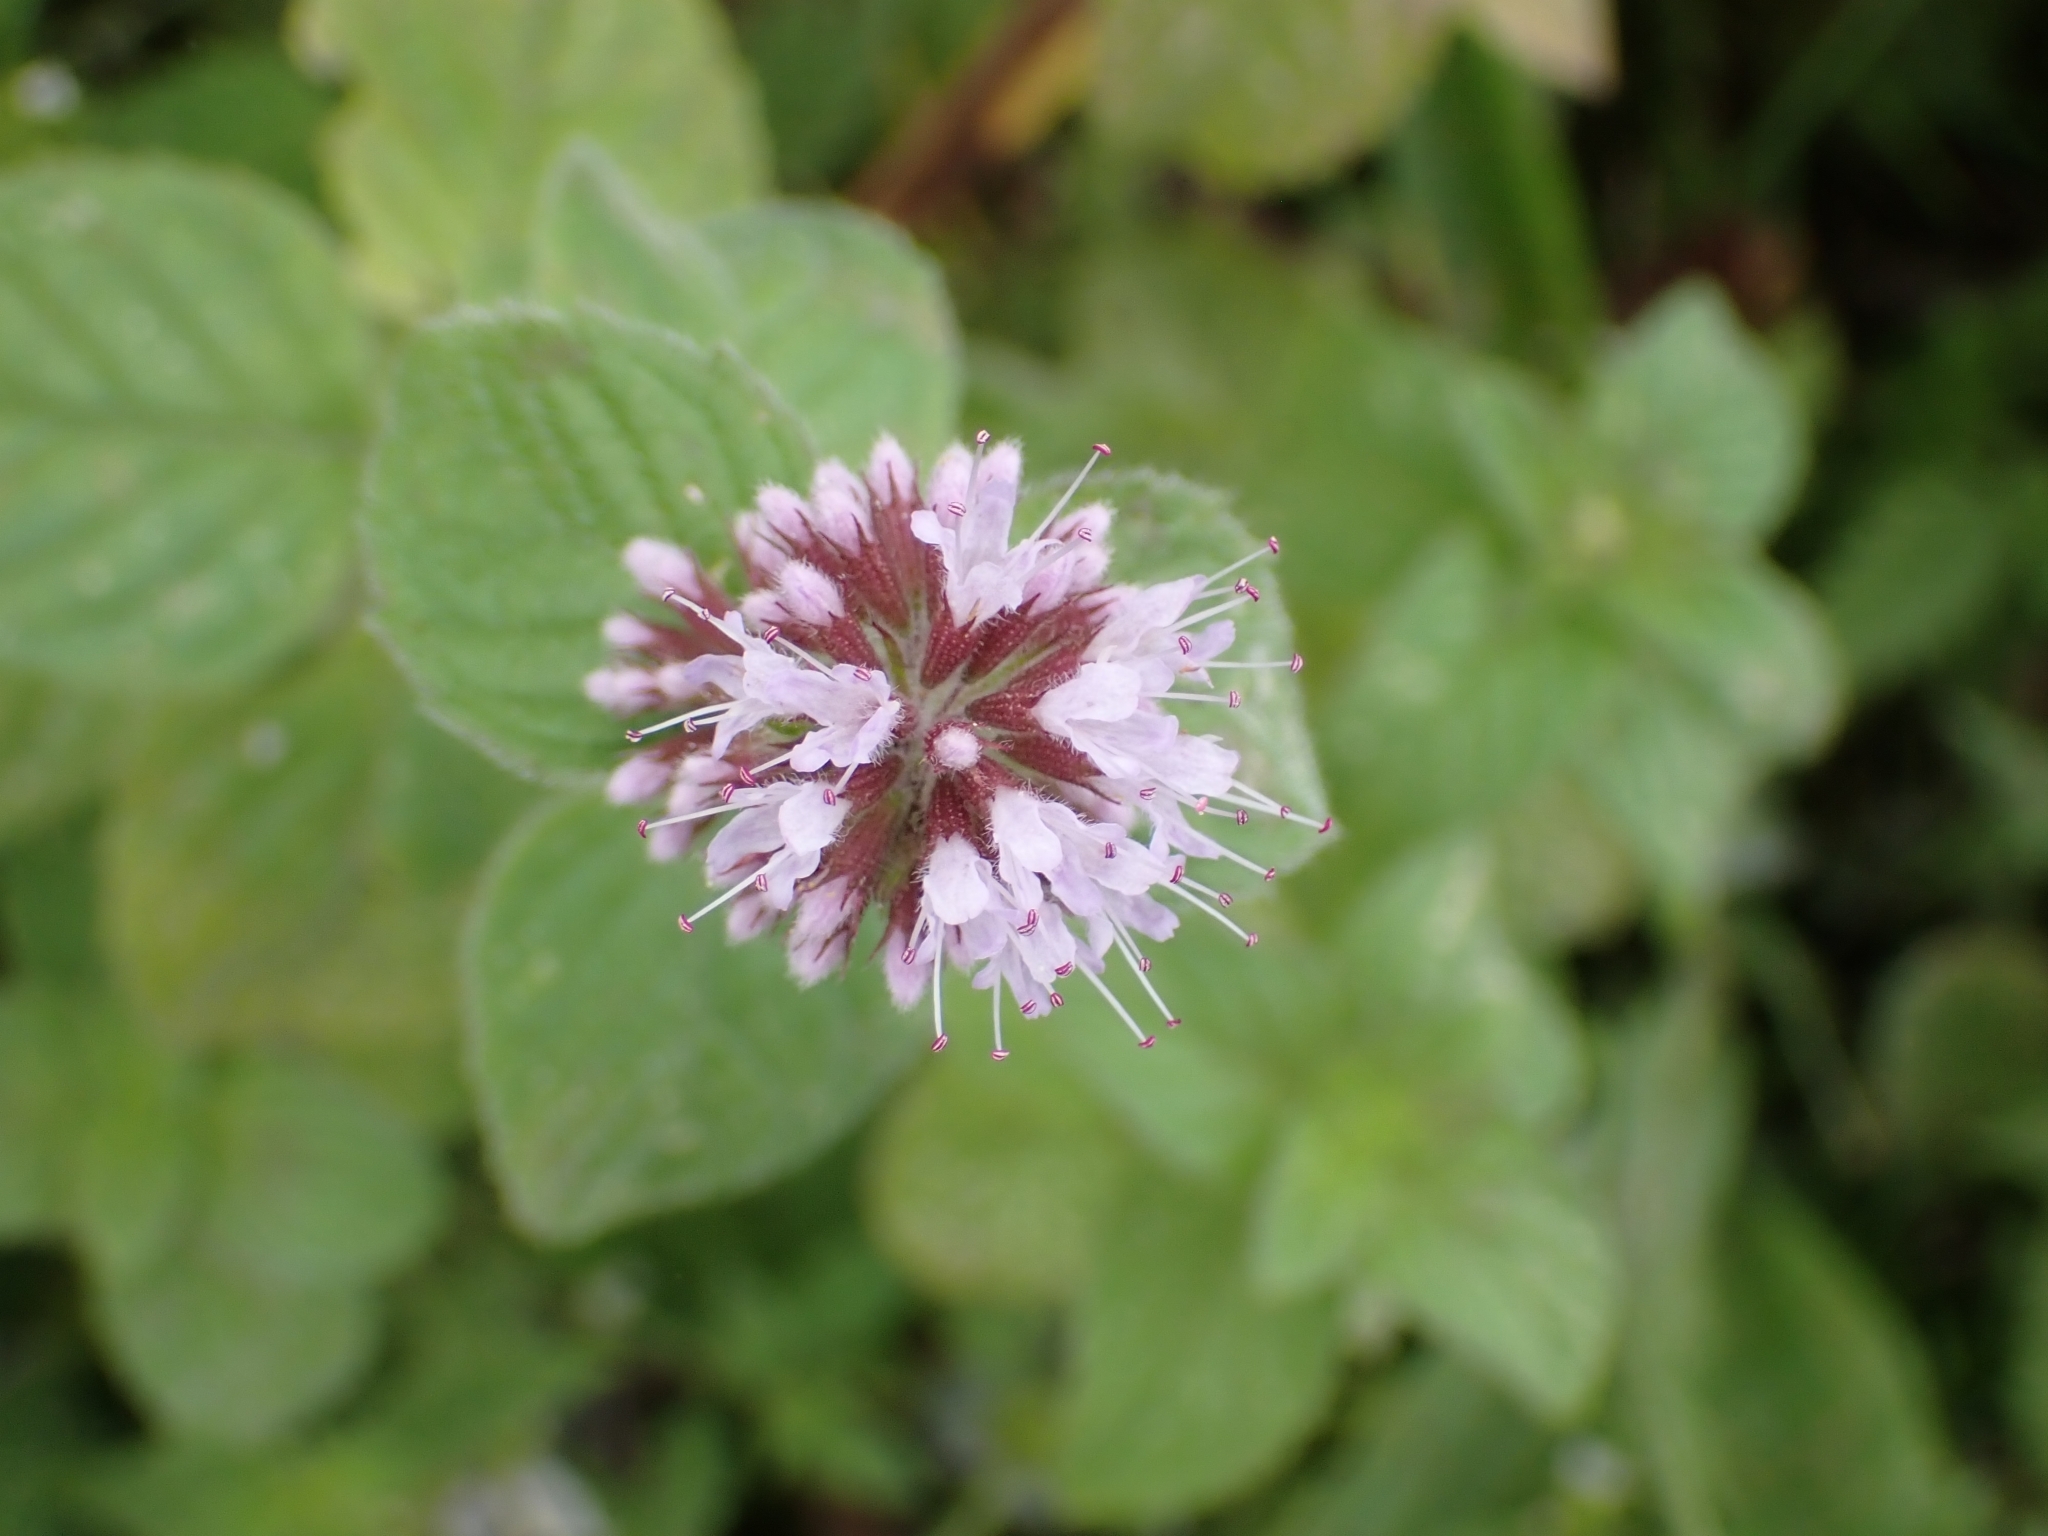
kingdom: Plantae
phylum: Tracheophyta
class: Magnoliopsida
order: Lamiales
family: Lamiaceae
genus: Mentha
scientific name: Mentha aquatica
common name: Water mint
